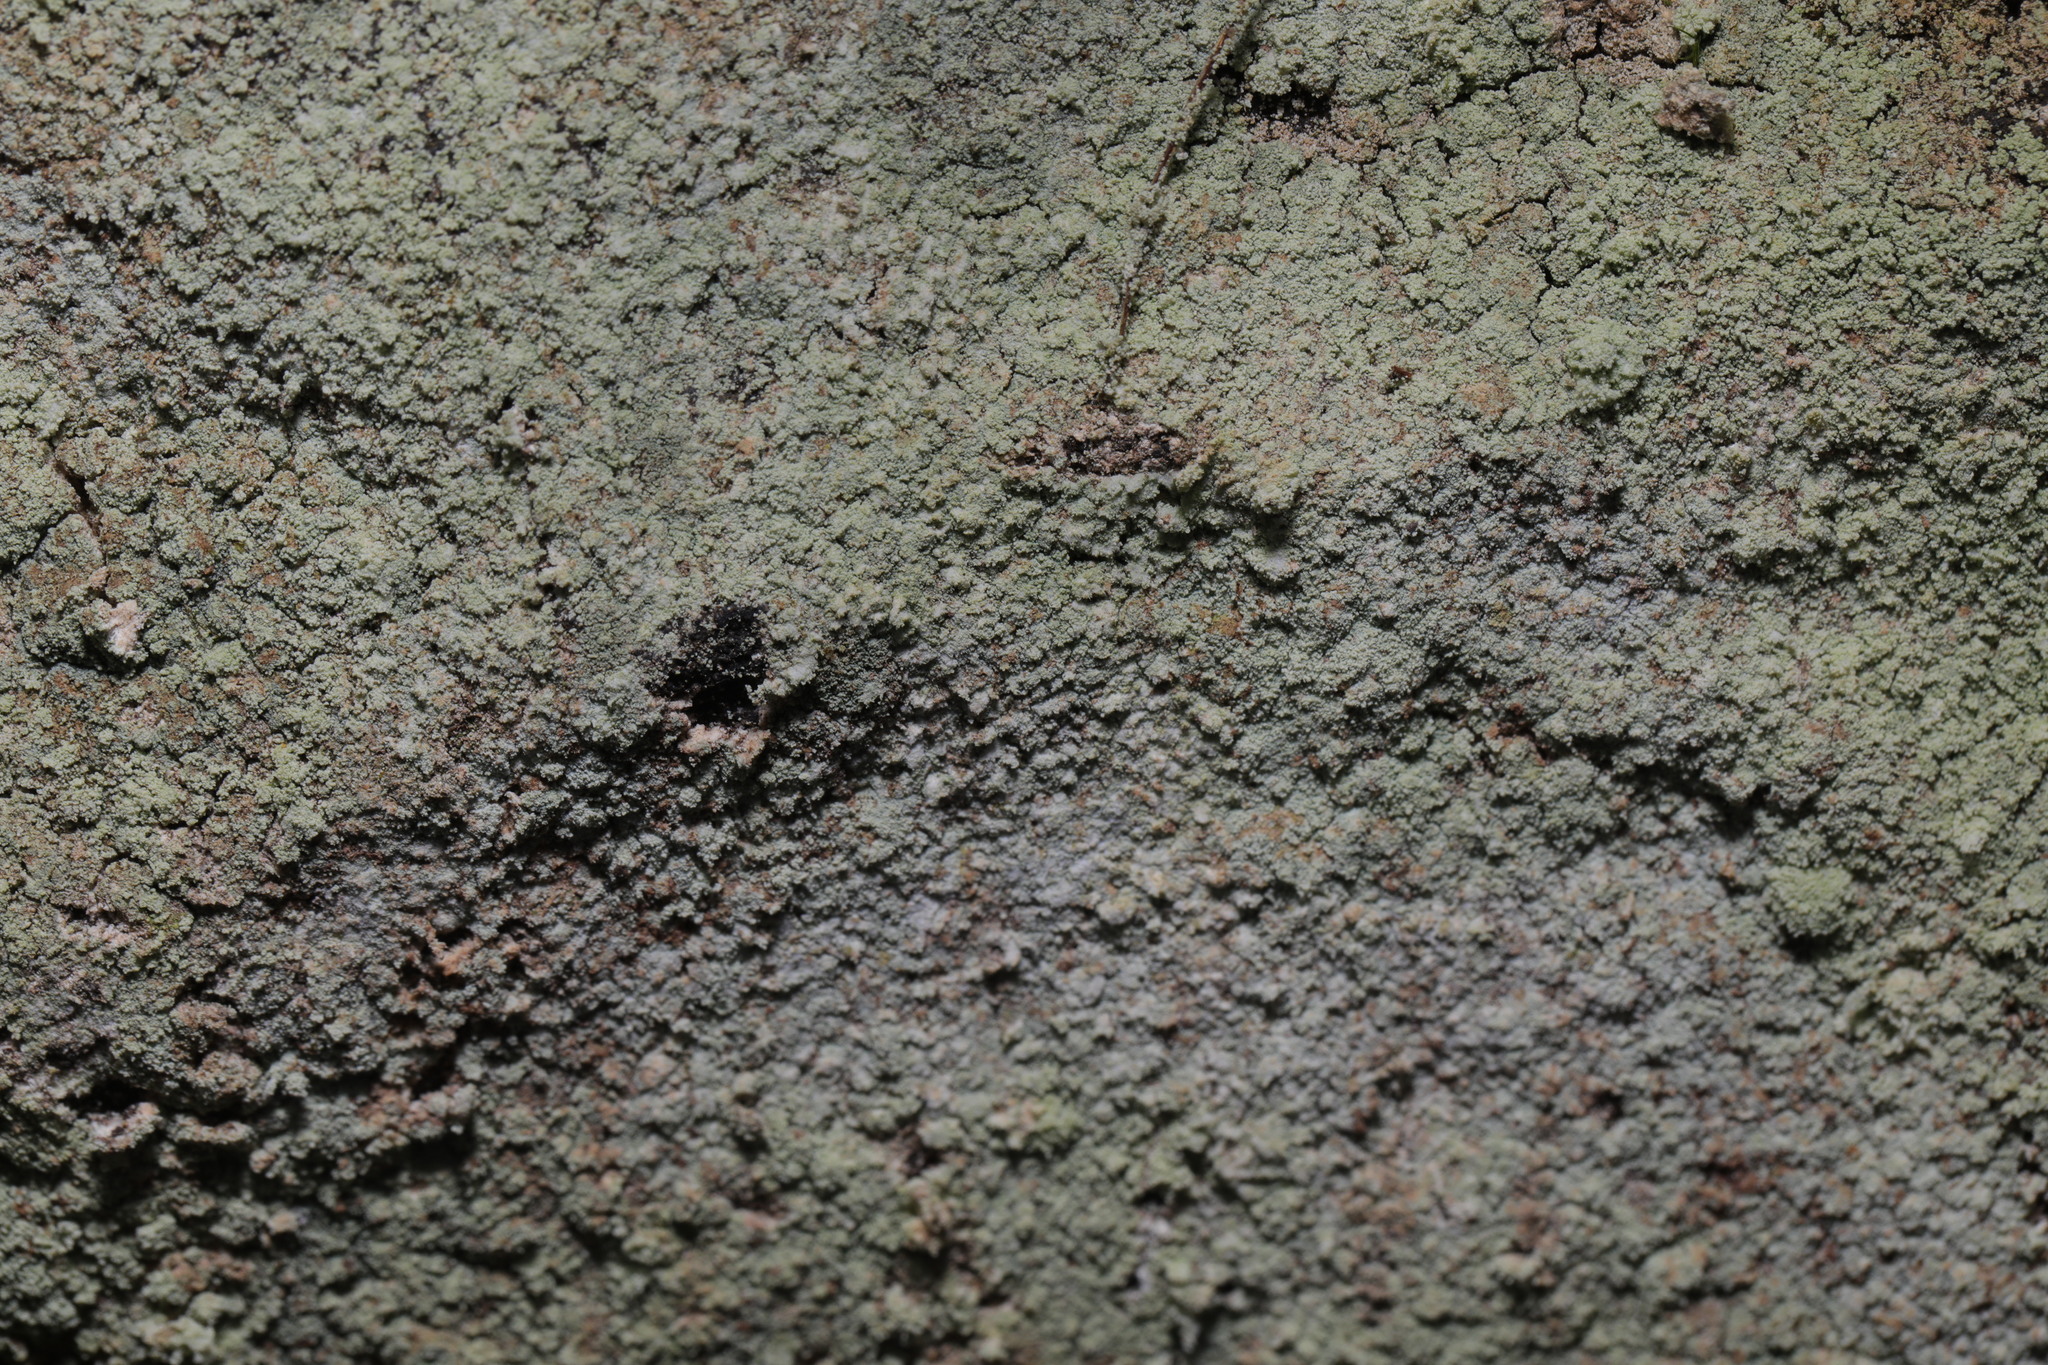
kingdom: Fungi
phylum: Ascomycota
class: Lecanoromycetes
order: Lecanorales
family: Stereocaulaceae
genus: Lepraria
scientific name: Lepraria
